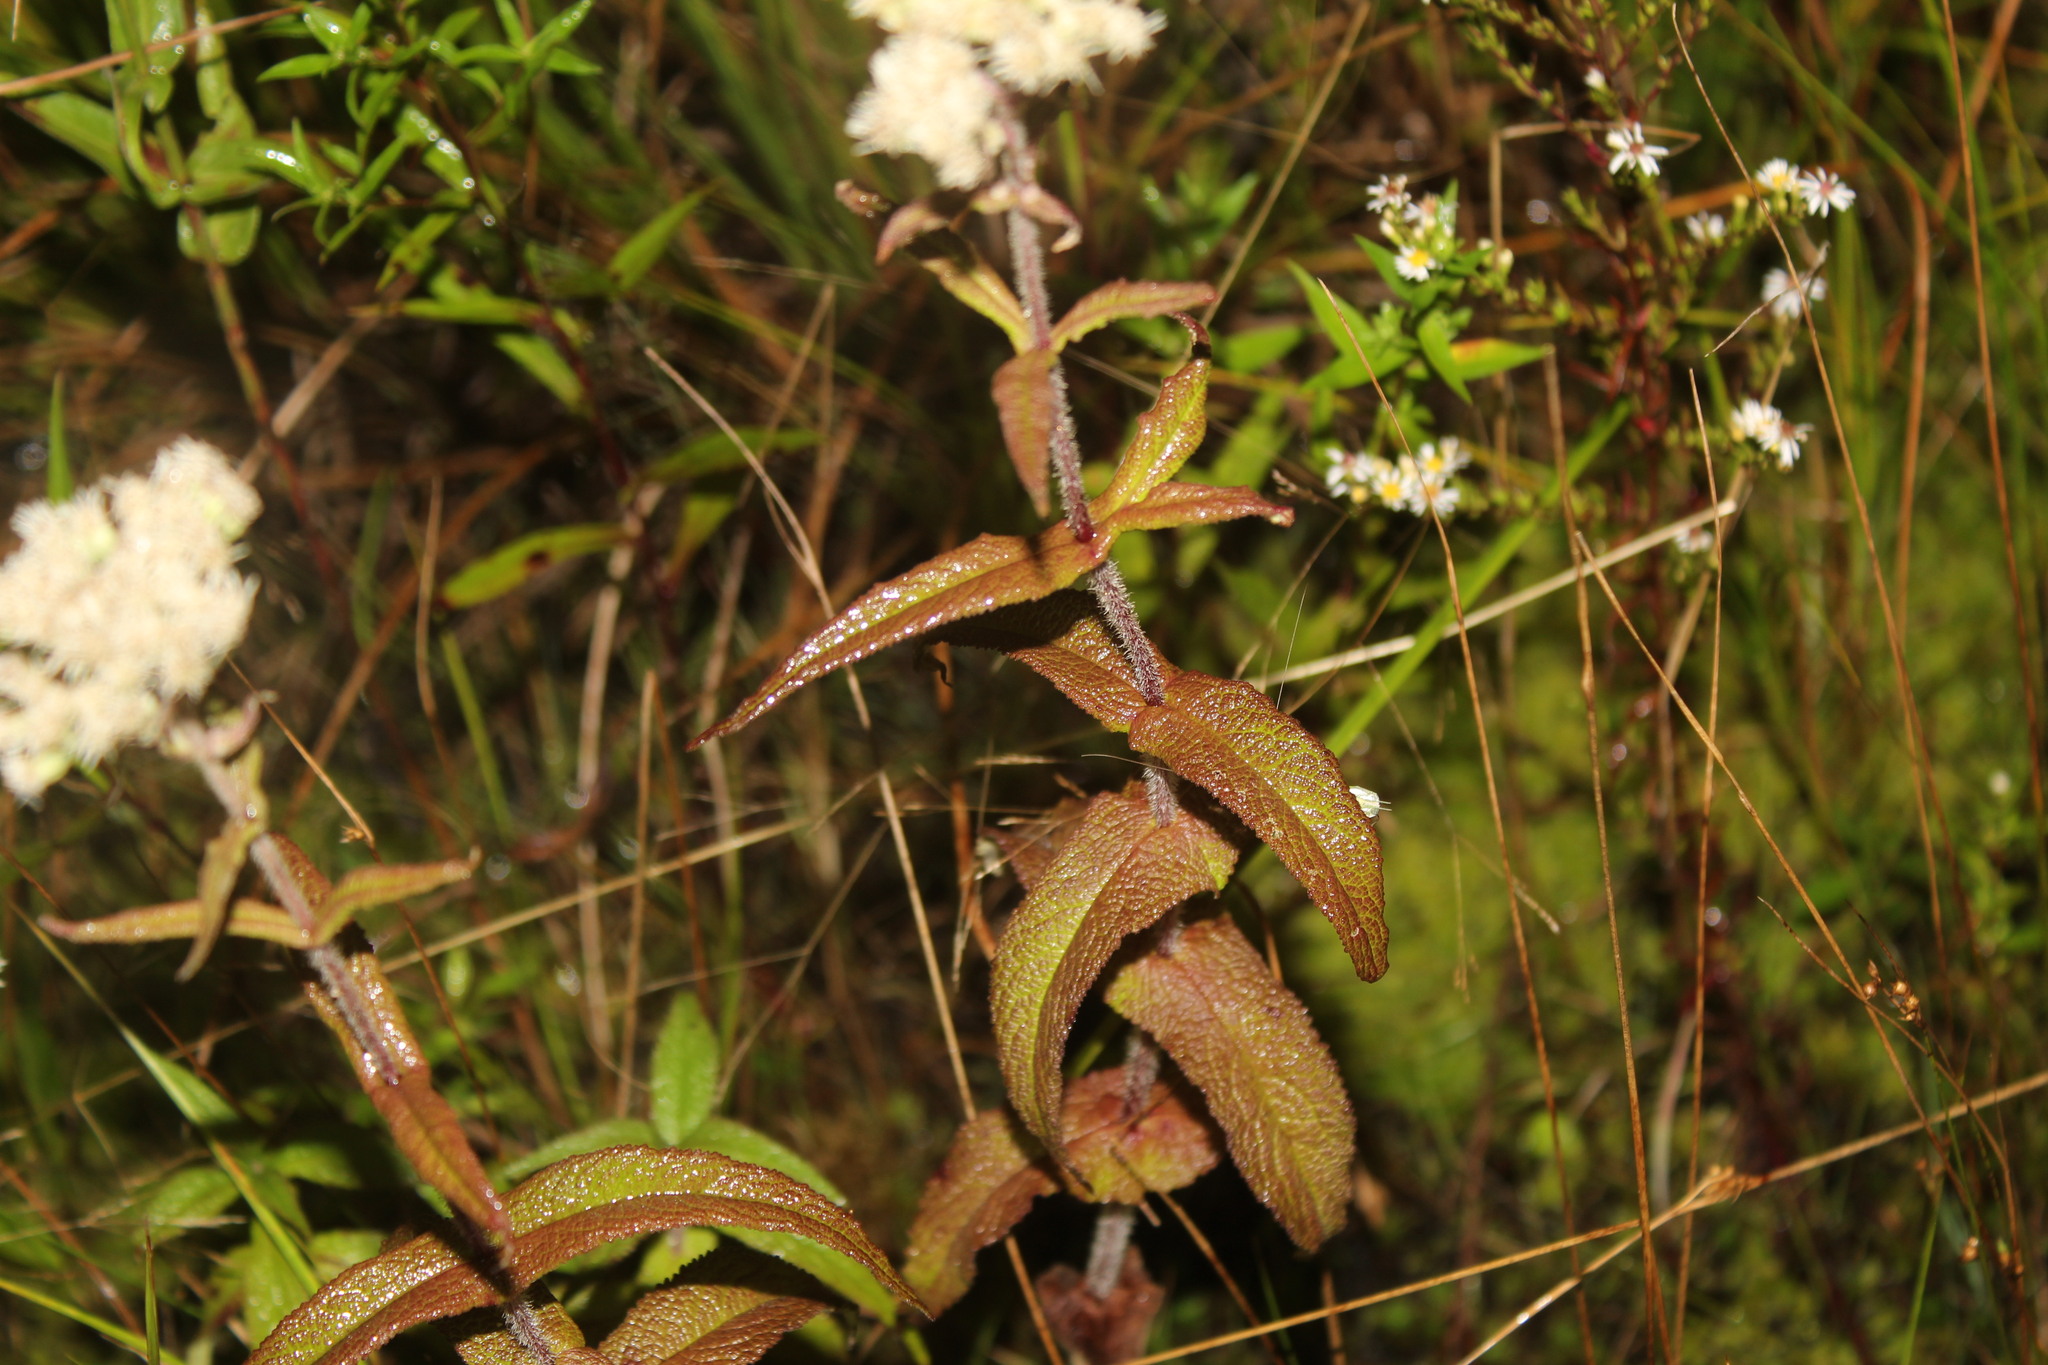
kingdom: Plantae
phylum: Tracheophyta
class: Magnoliopsida
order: Asterales
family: Asteraceae
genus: Eupatorium
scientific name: Eupatorium perfoliatum
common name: Boneset
